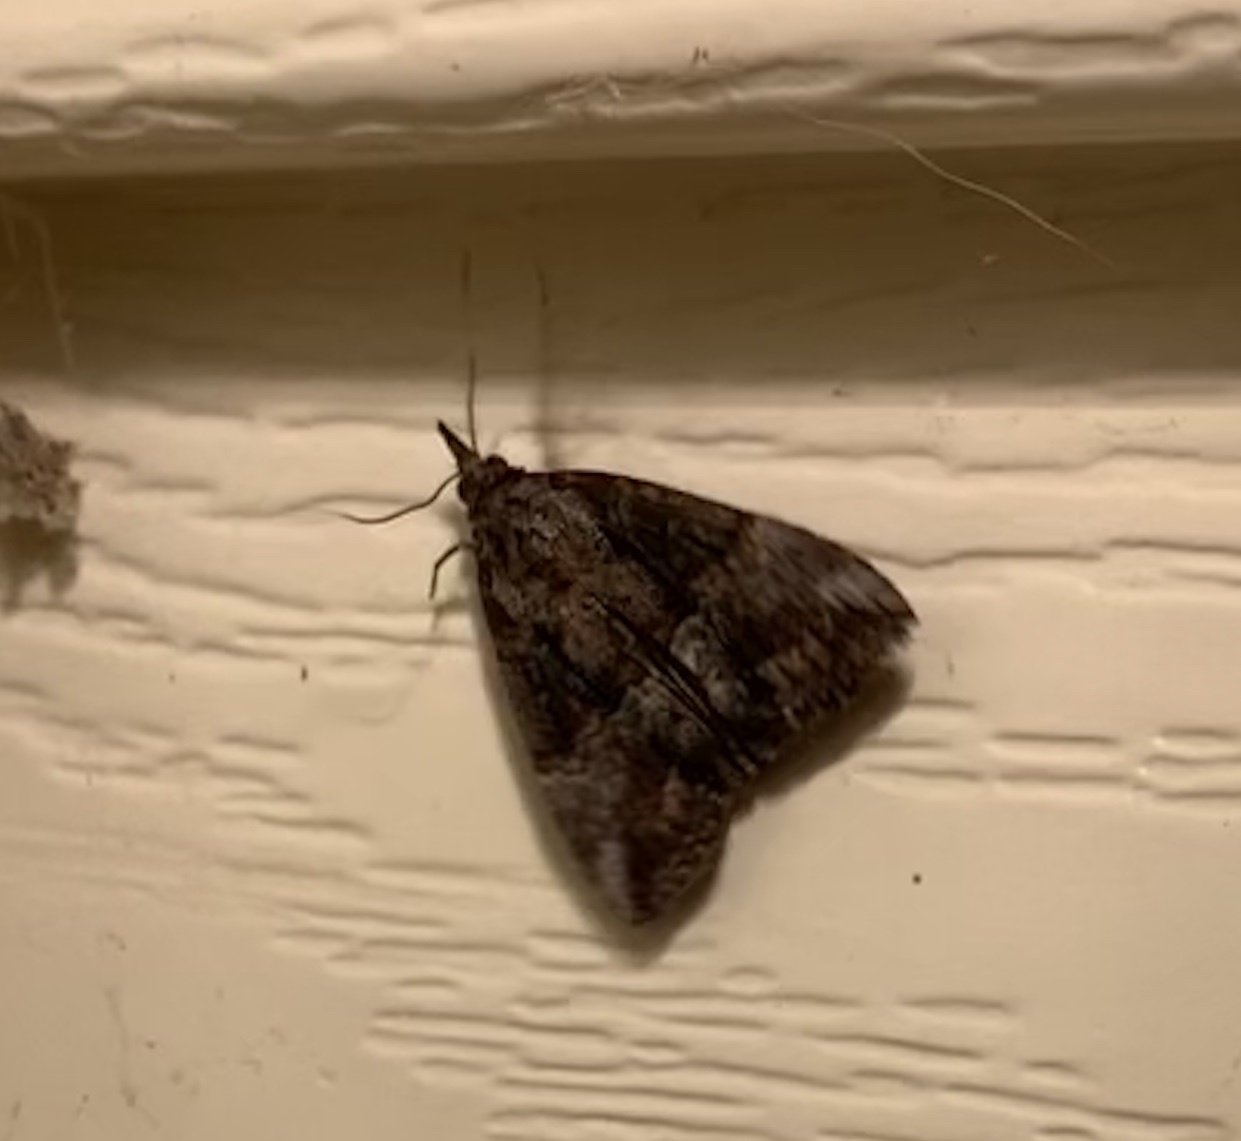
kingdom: Animalia
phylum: Arthropoda
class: Insecta
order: Lepidoptera
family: Erebidae
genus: Hypena
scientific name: Hypena scabra
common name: Green cloverworm
